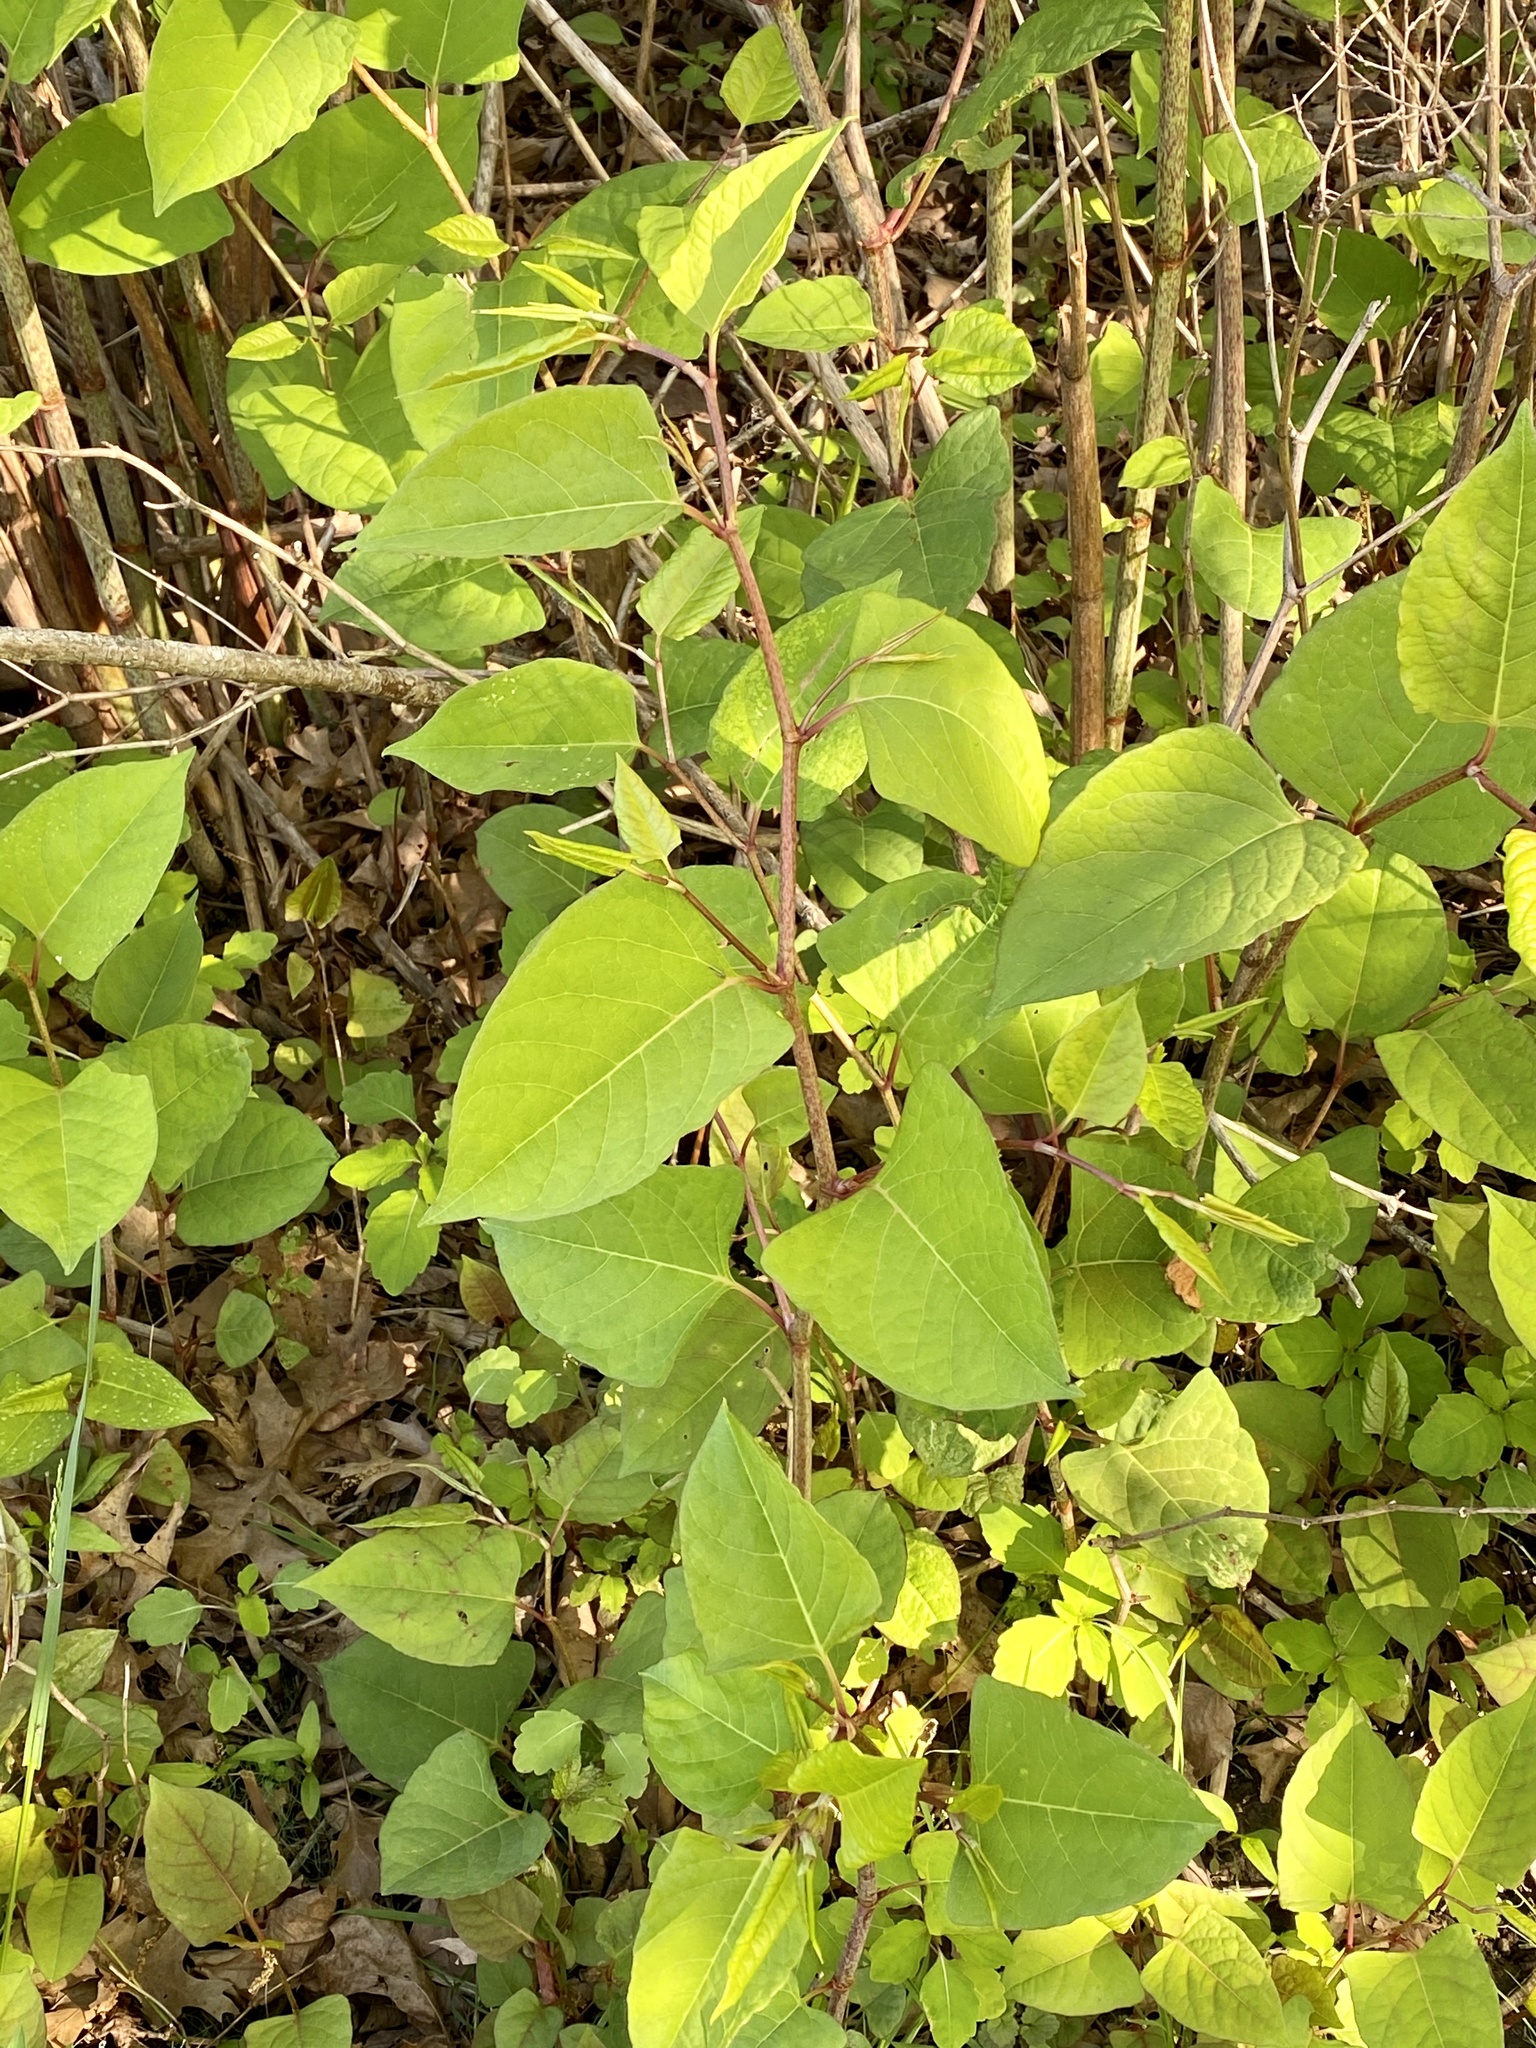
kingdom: Plantae
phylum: Tracheophyta
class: Magnoliopsida
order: Caryophyllales
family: Polygonaceae
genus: Reynoutria
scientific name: Reynoutria japonica
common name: Japanese knotweed
